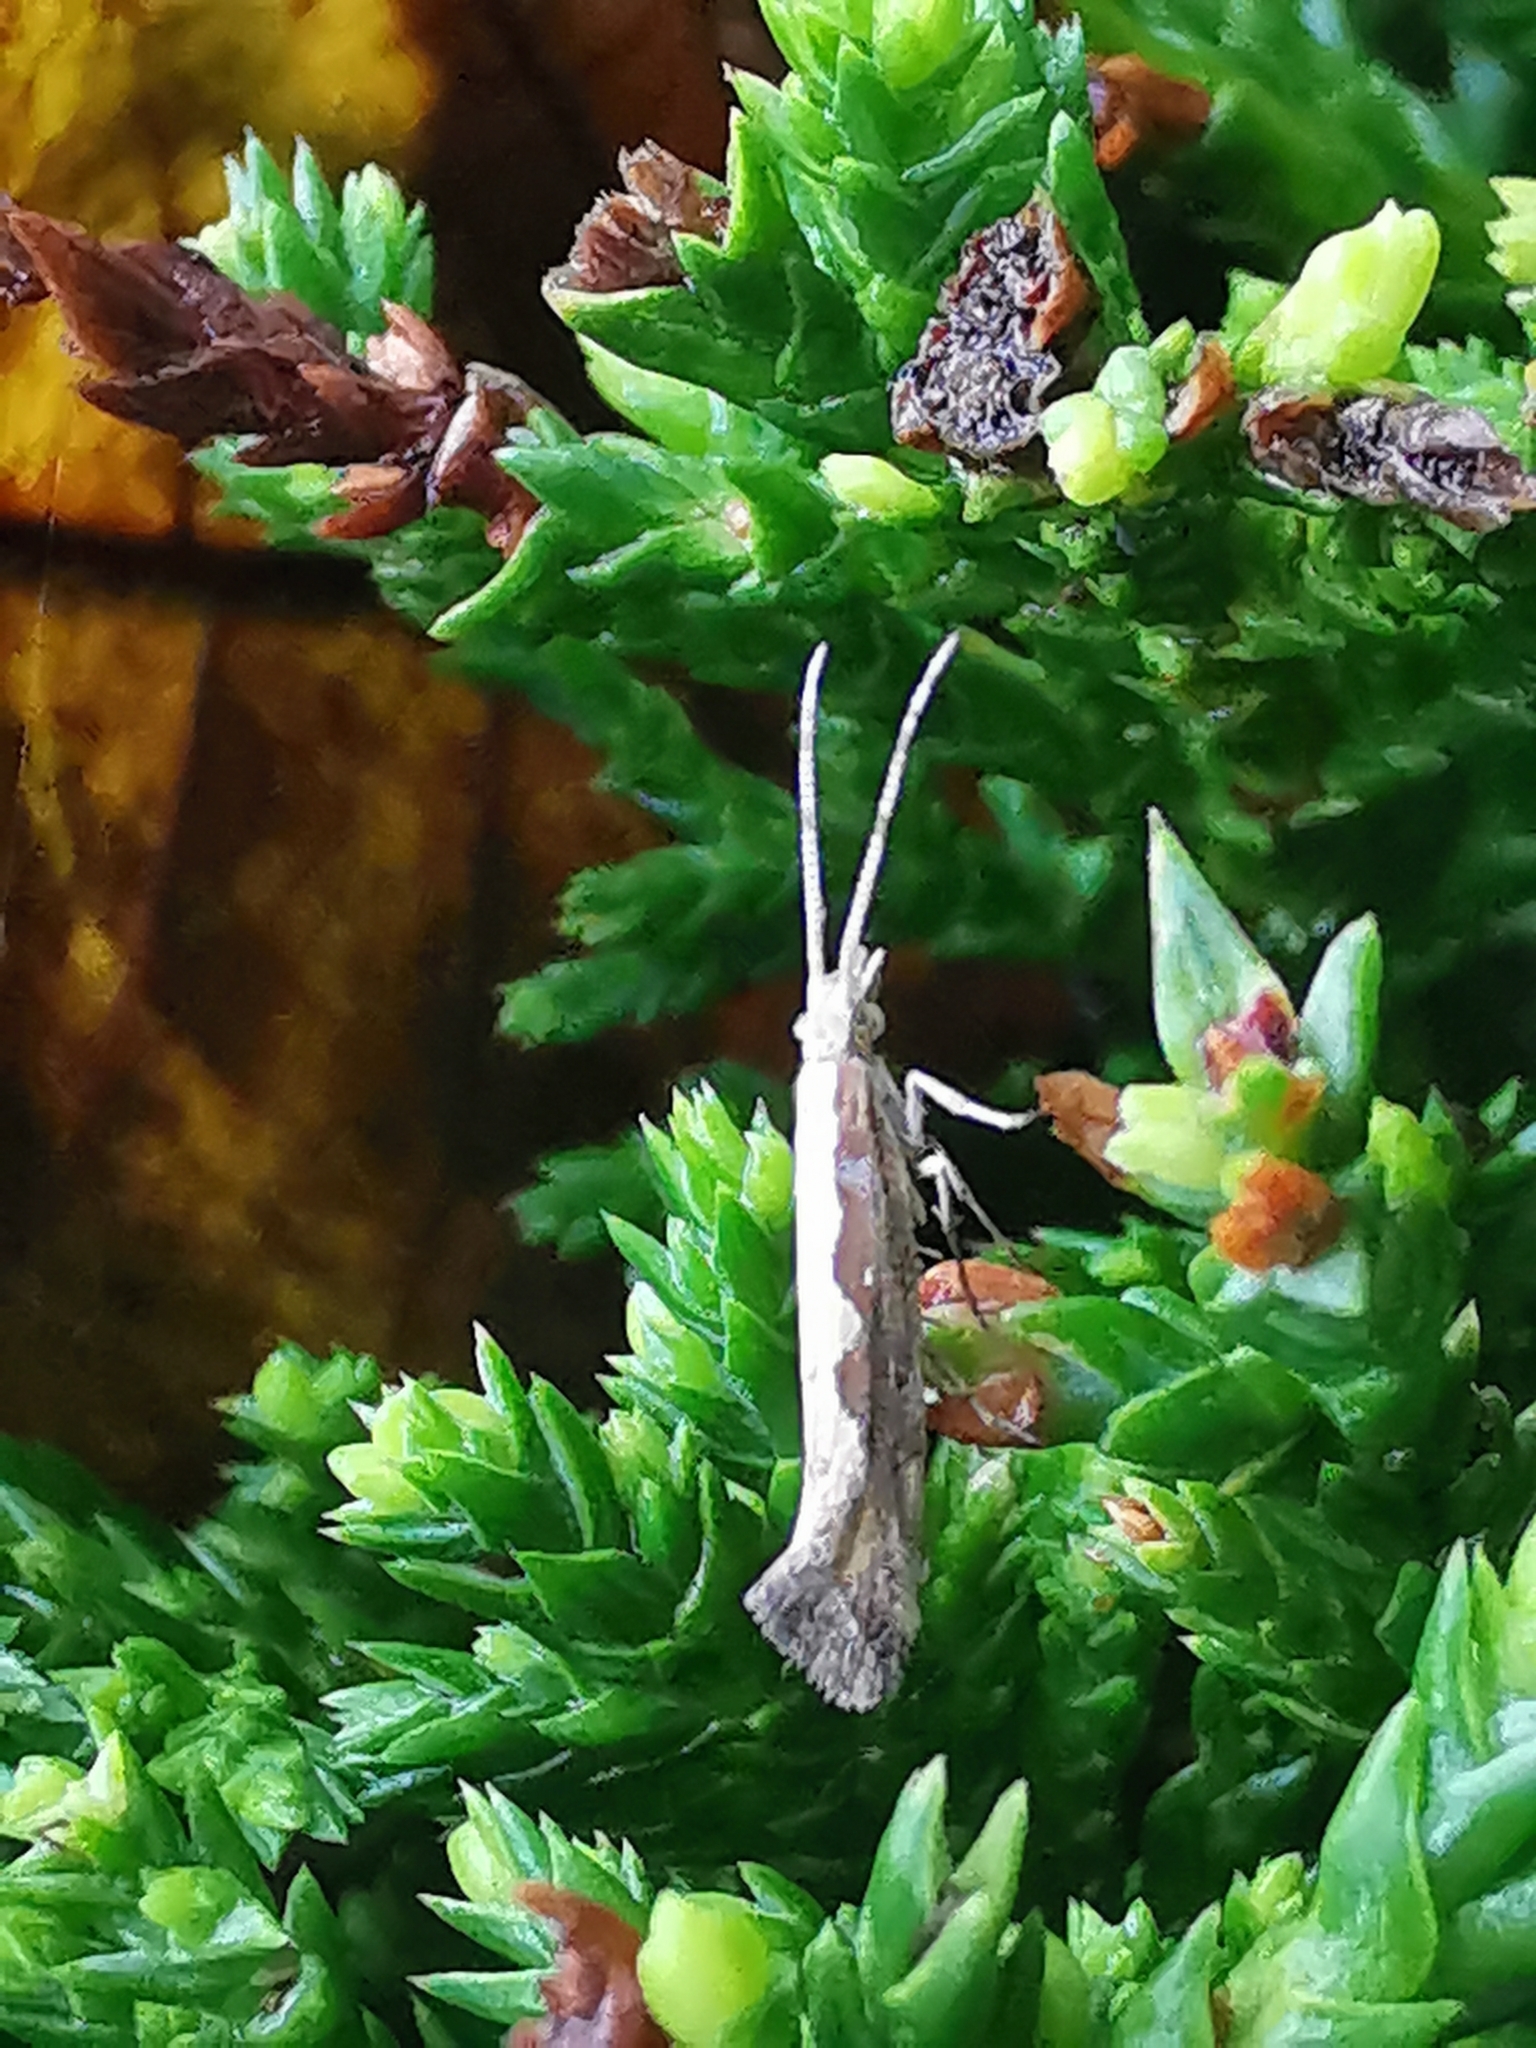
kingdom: Animalia
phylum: Arthropoda
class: Insecta
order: Lepidoptera
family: Plutellidae
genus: Plutella
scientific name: Plutella xylostella
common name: Diamond-back moth
